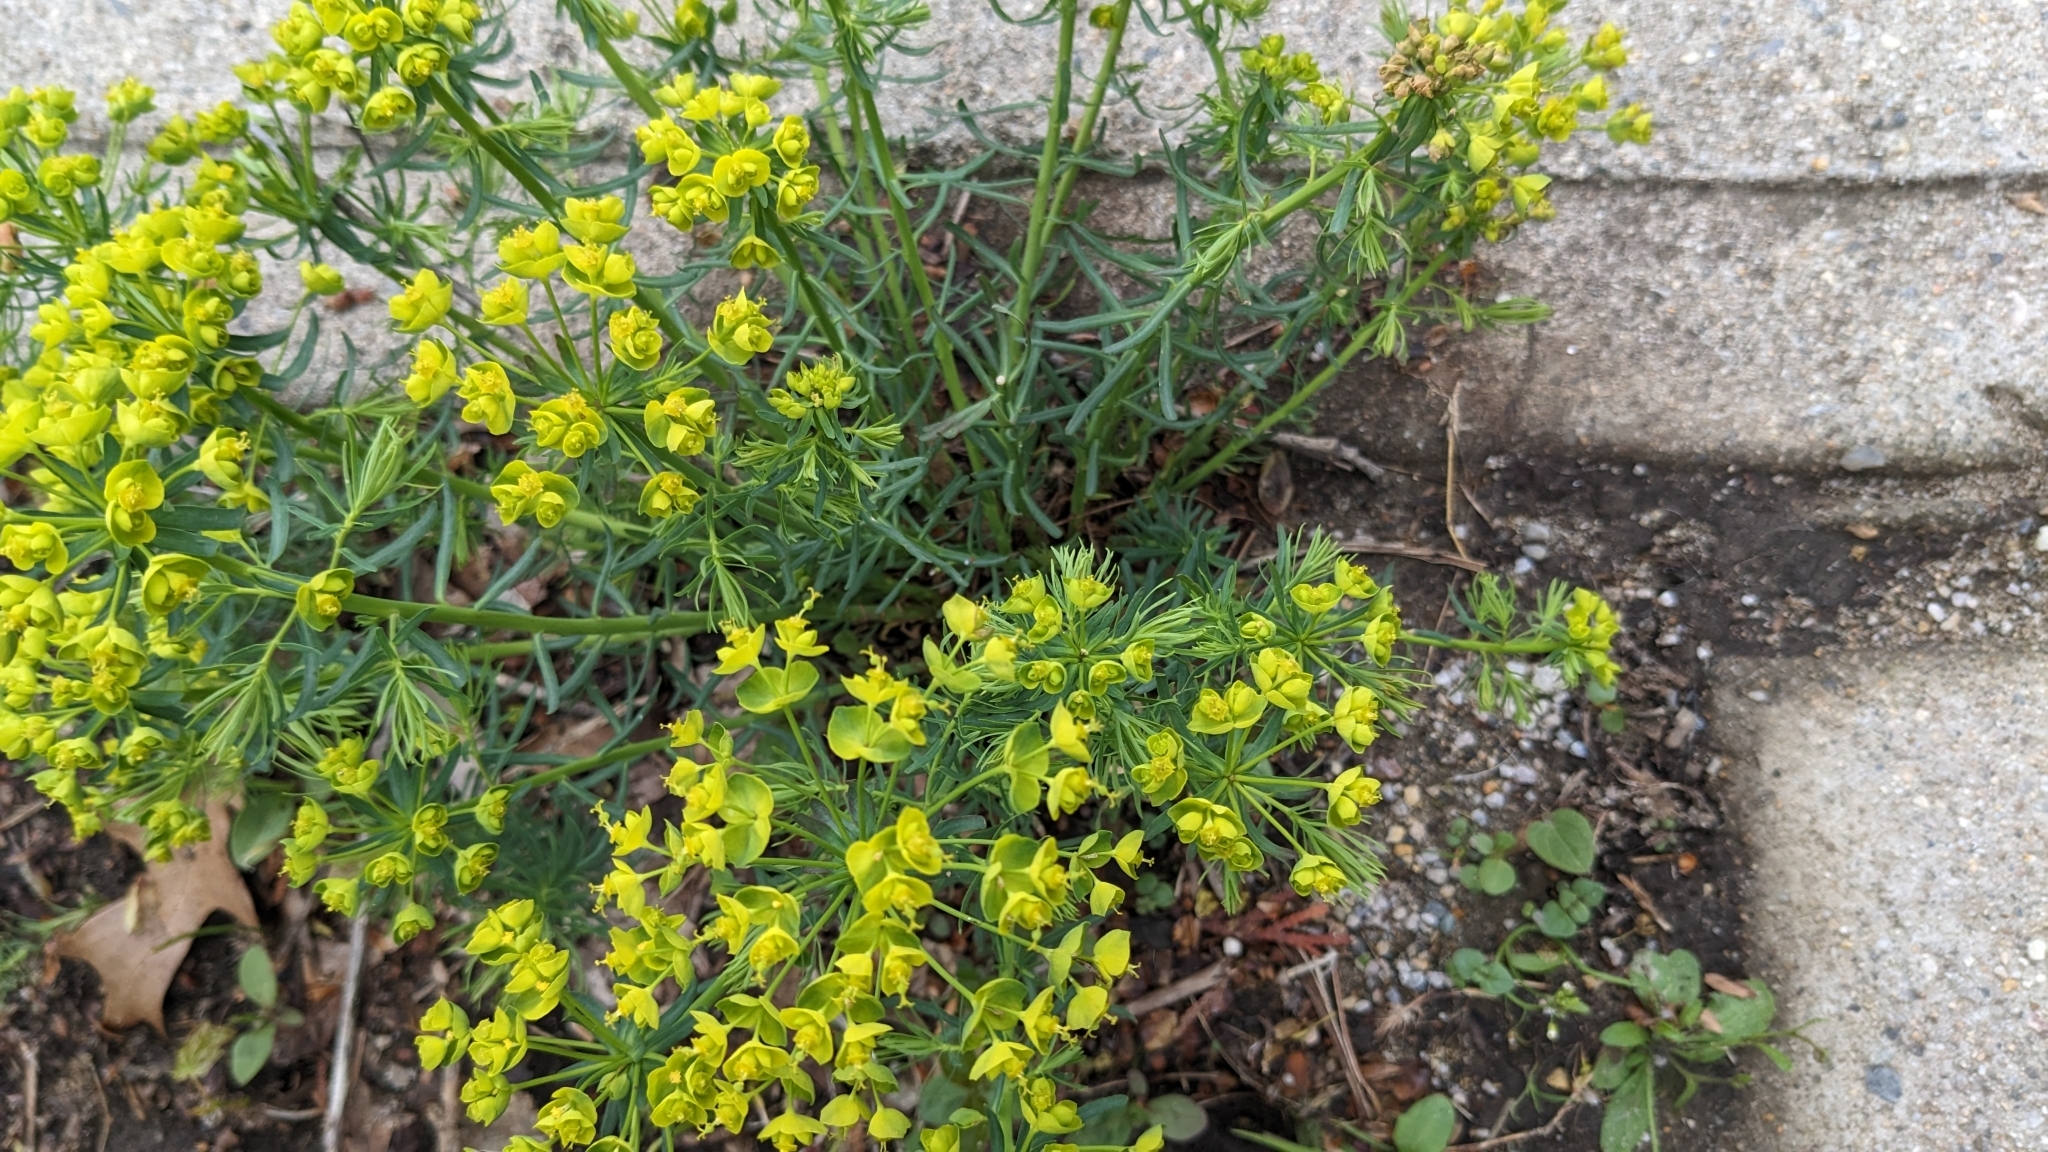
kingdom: Plantae
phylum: Tracheophyta
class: Magnoliopsida
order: Malpighiales
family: Euphorbiaceae
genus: Euphorbia
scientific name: Euphorbia cyparissias
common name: Cypress spurge
